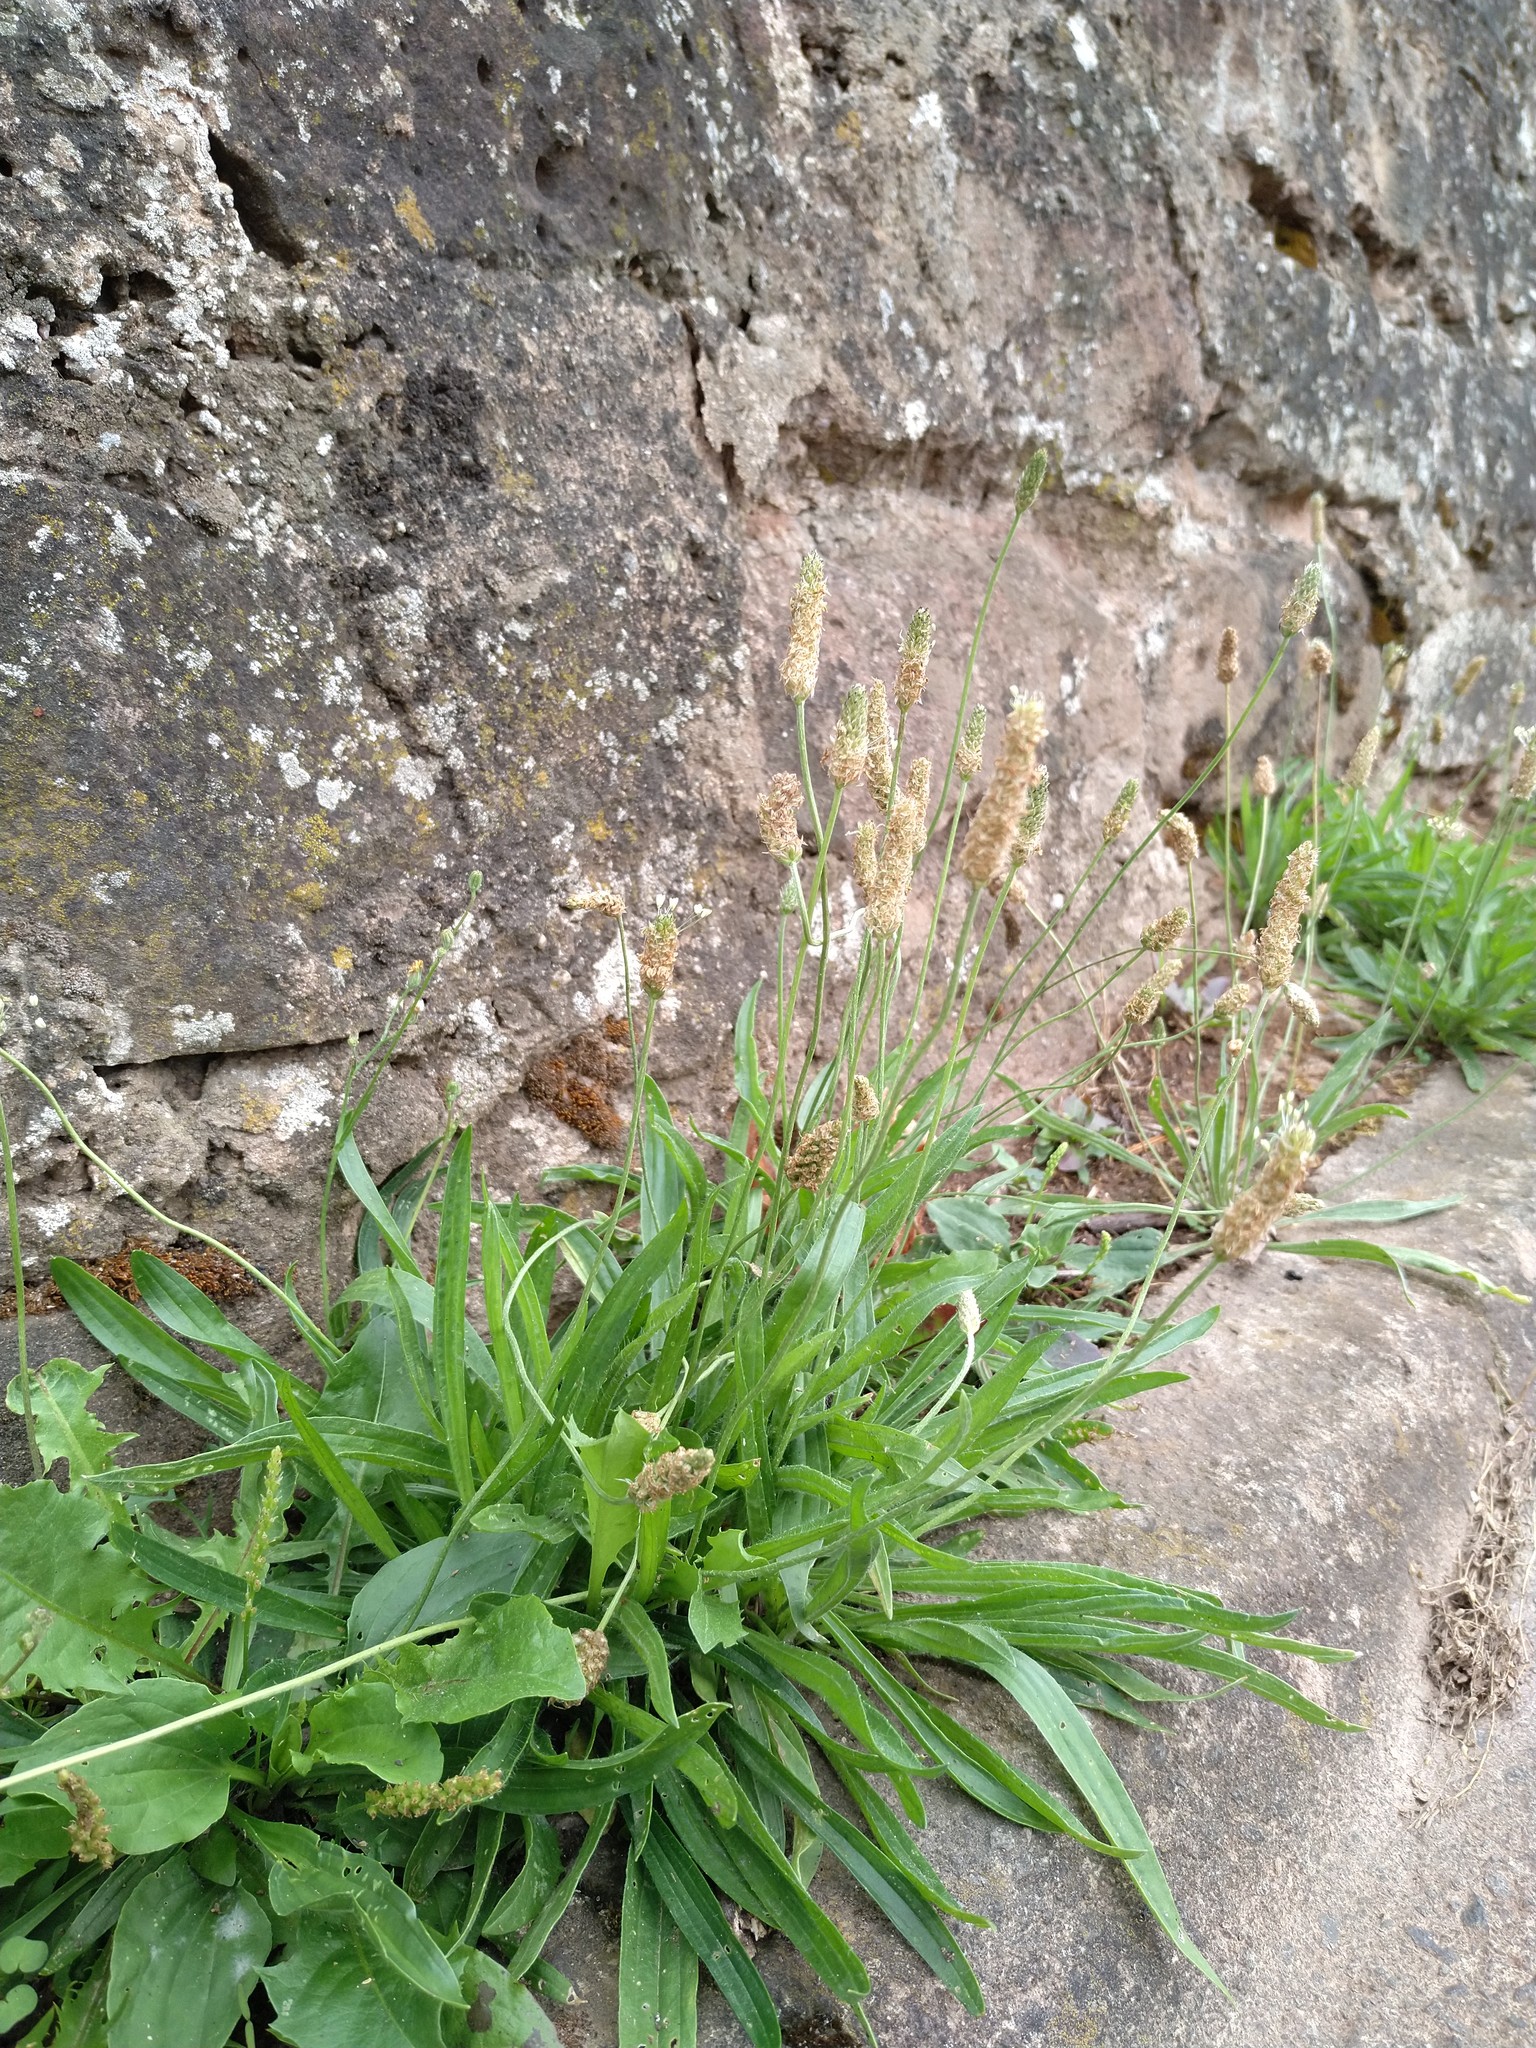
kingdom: Plantae
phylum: Tracheophyta
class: Magnoliopsida
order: Lamiales
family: Plantaginaceae
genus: Plantago
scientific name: Plantago lanceolata
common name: Ribwort plantain
